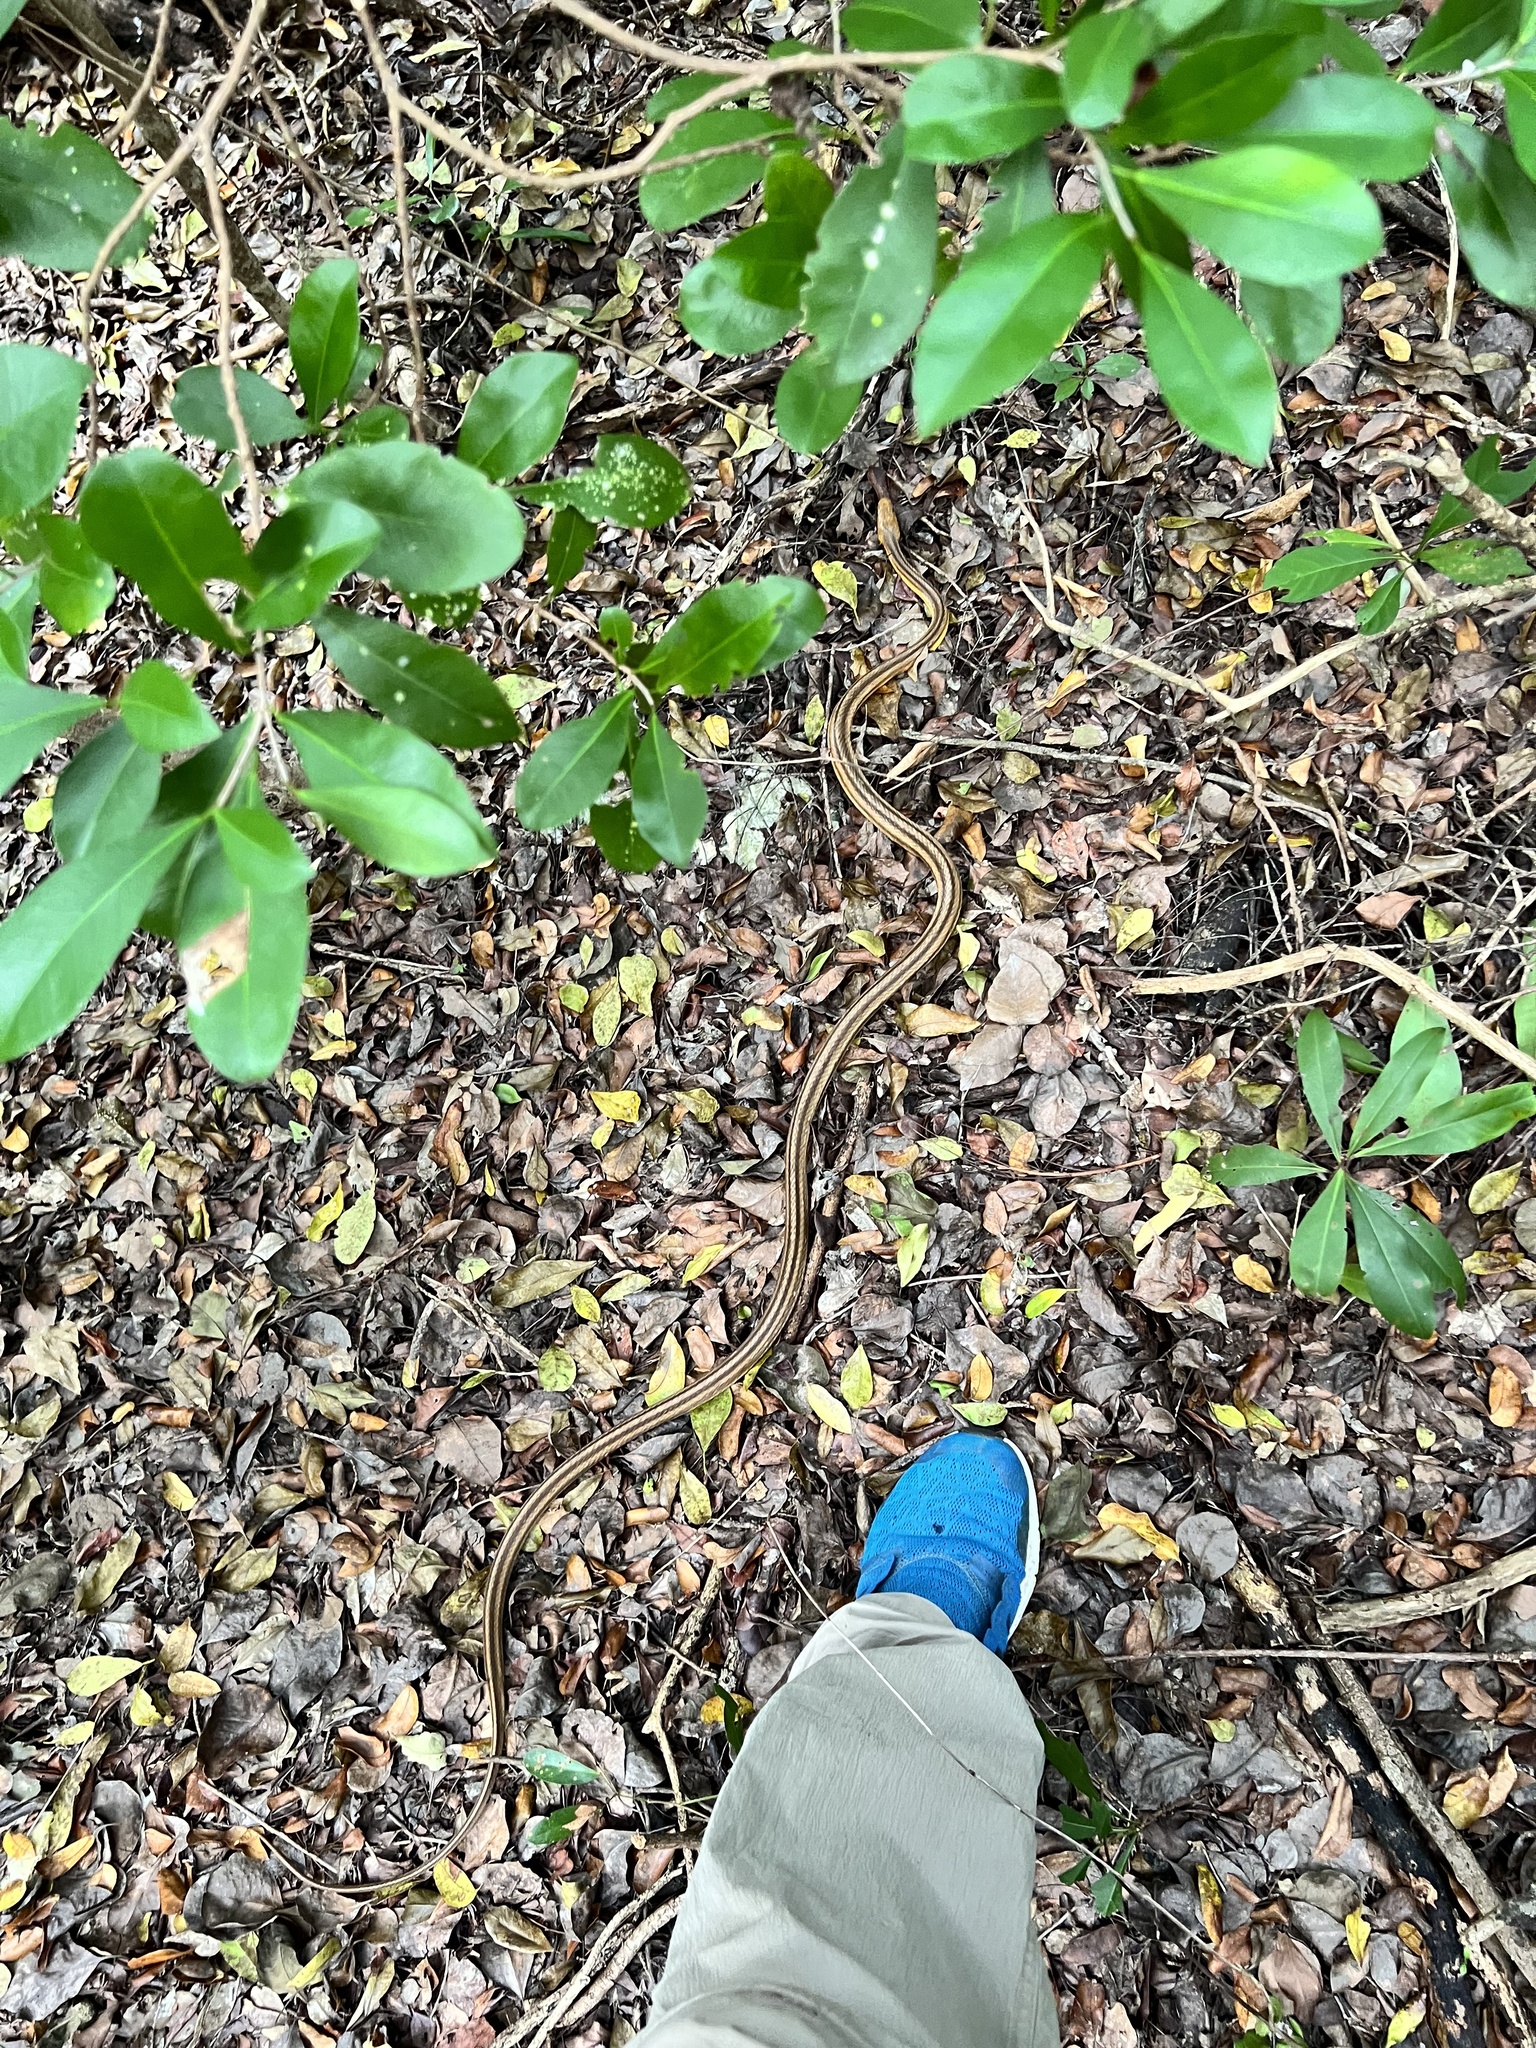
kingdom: Animalia
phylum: Chordata
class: Squamata
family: Colubridae
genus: Pantherophis
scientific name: Pantherophis alleghaniensis
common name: Eastern rat snake
